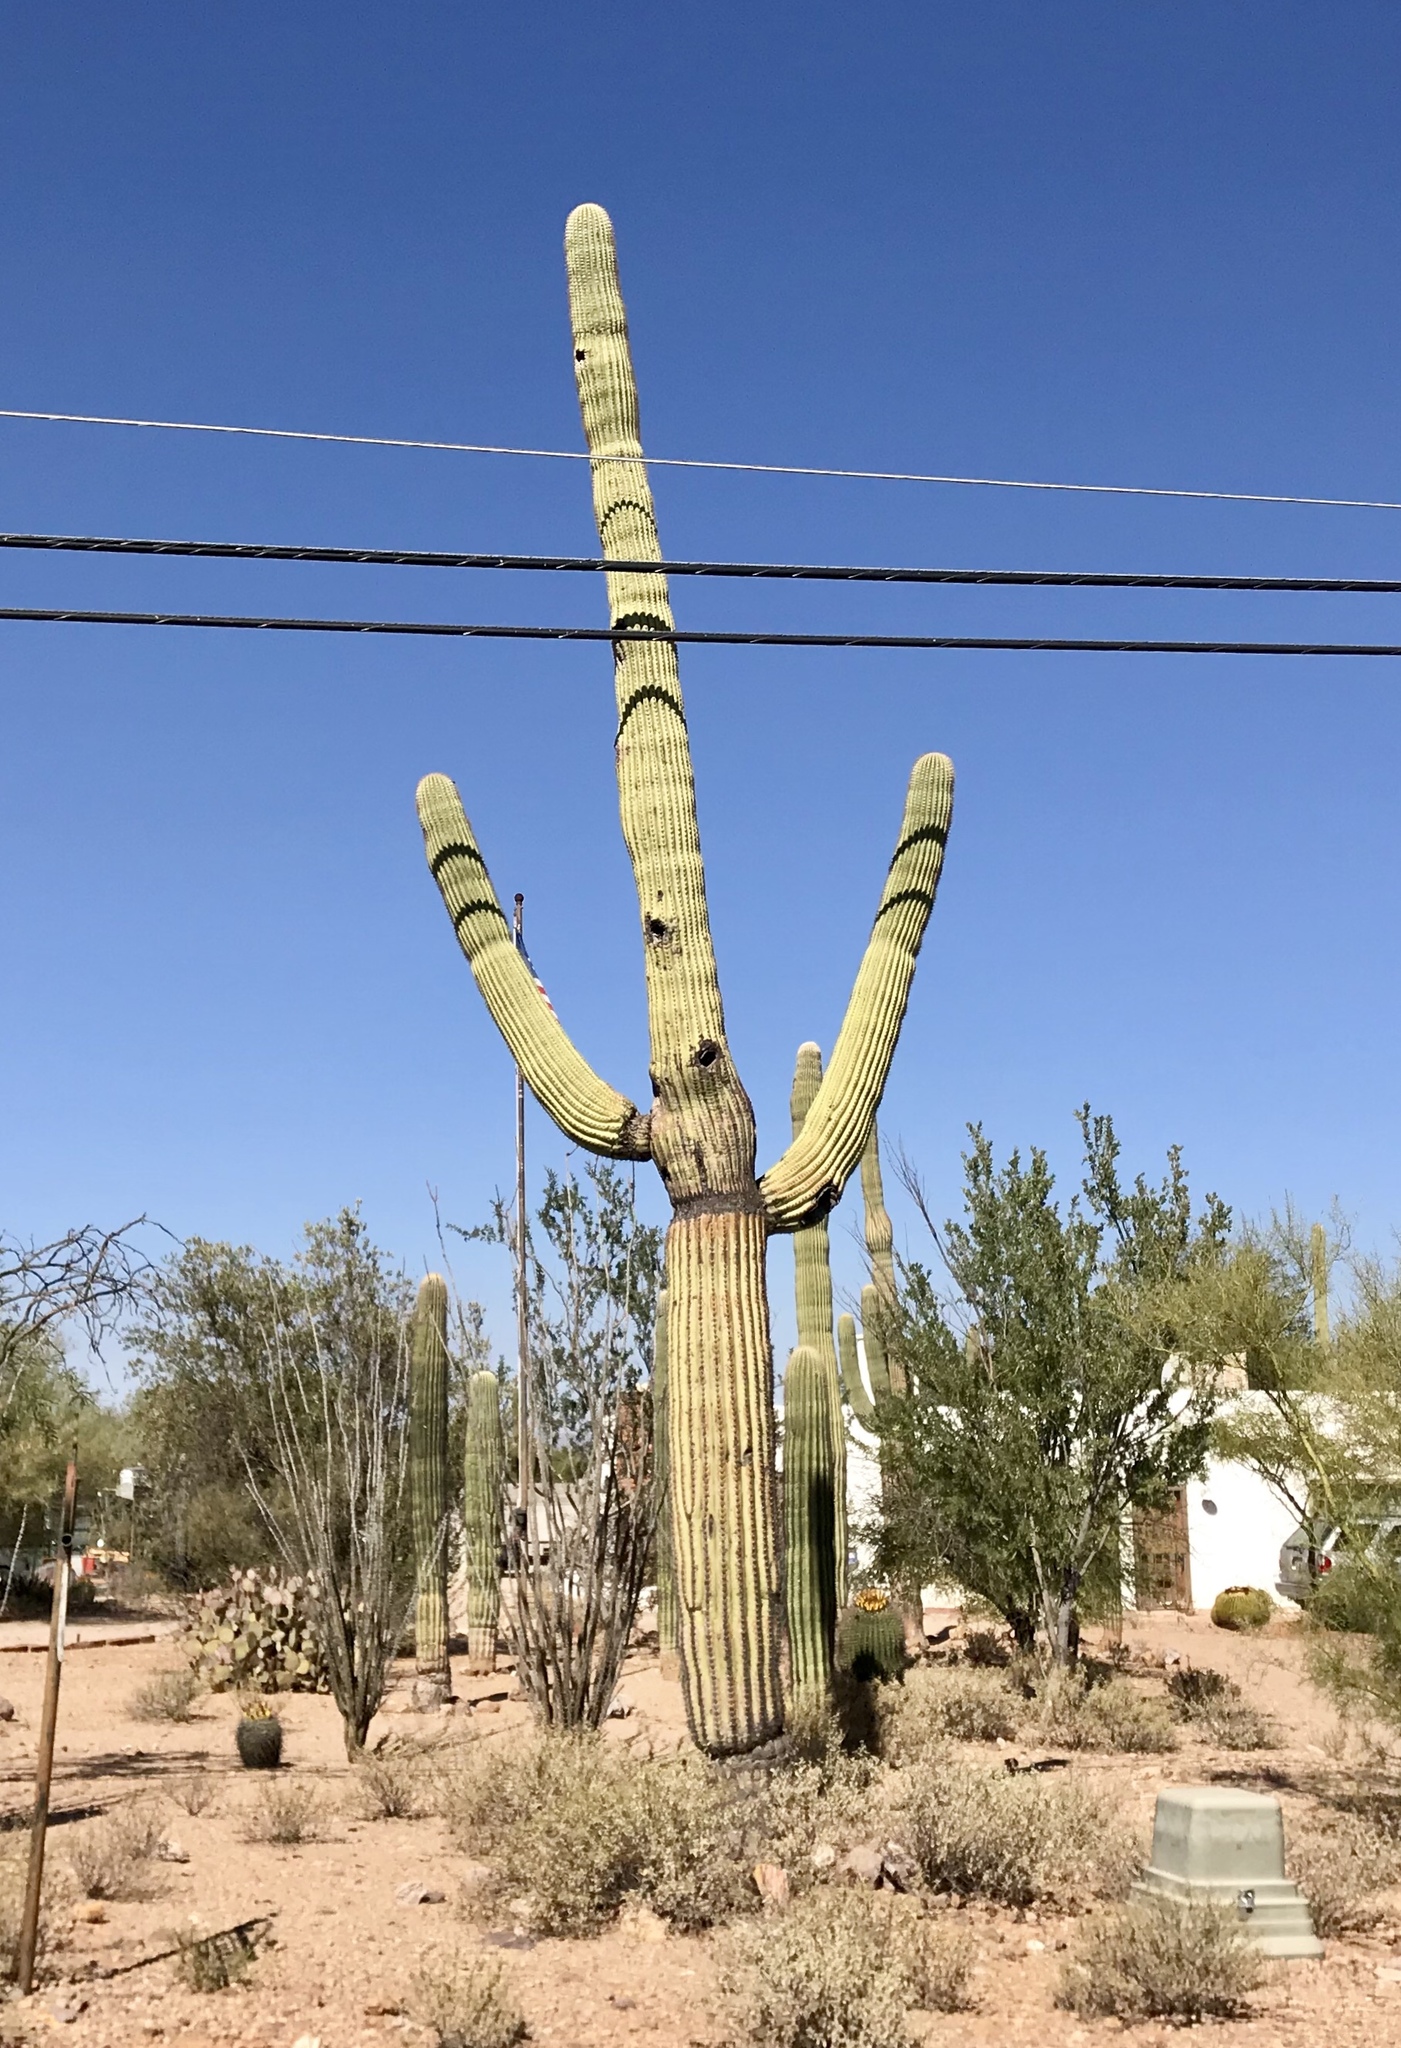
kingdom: Plantae
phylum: Tracheophyta
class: Magnoliopsida
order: Caryophyllales
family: Cactaceae
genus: Carnegiea
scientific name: Carnegiea gigantea
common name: Saguaro
